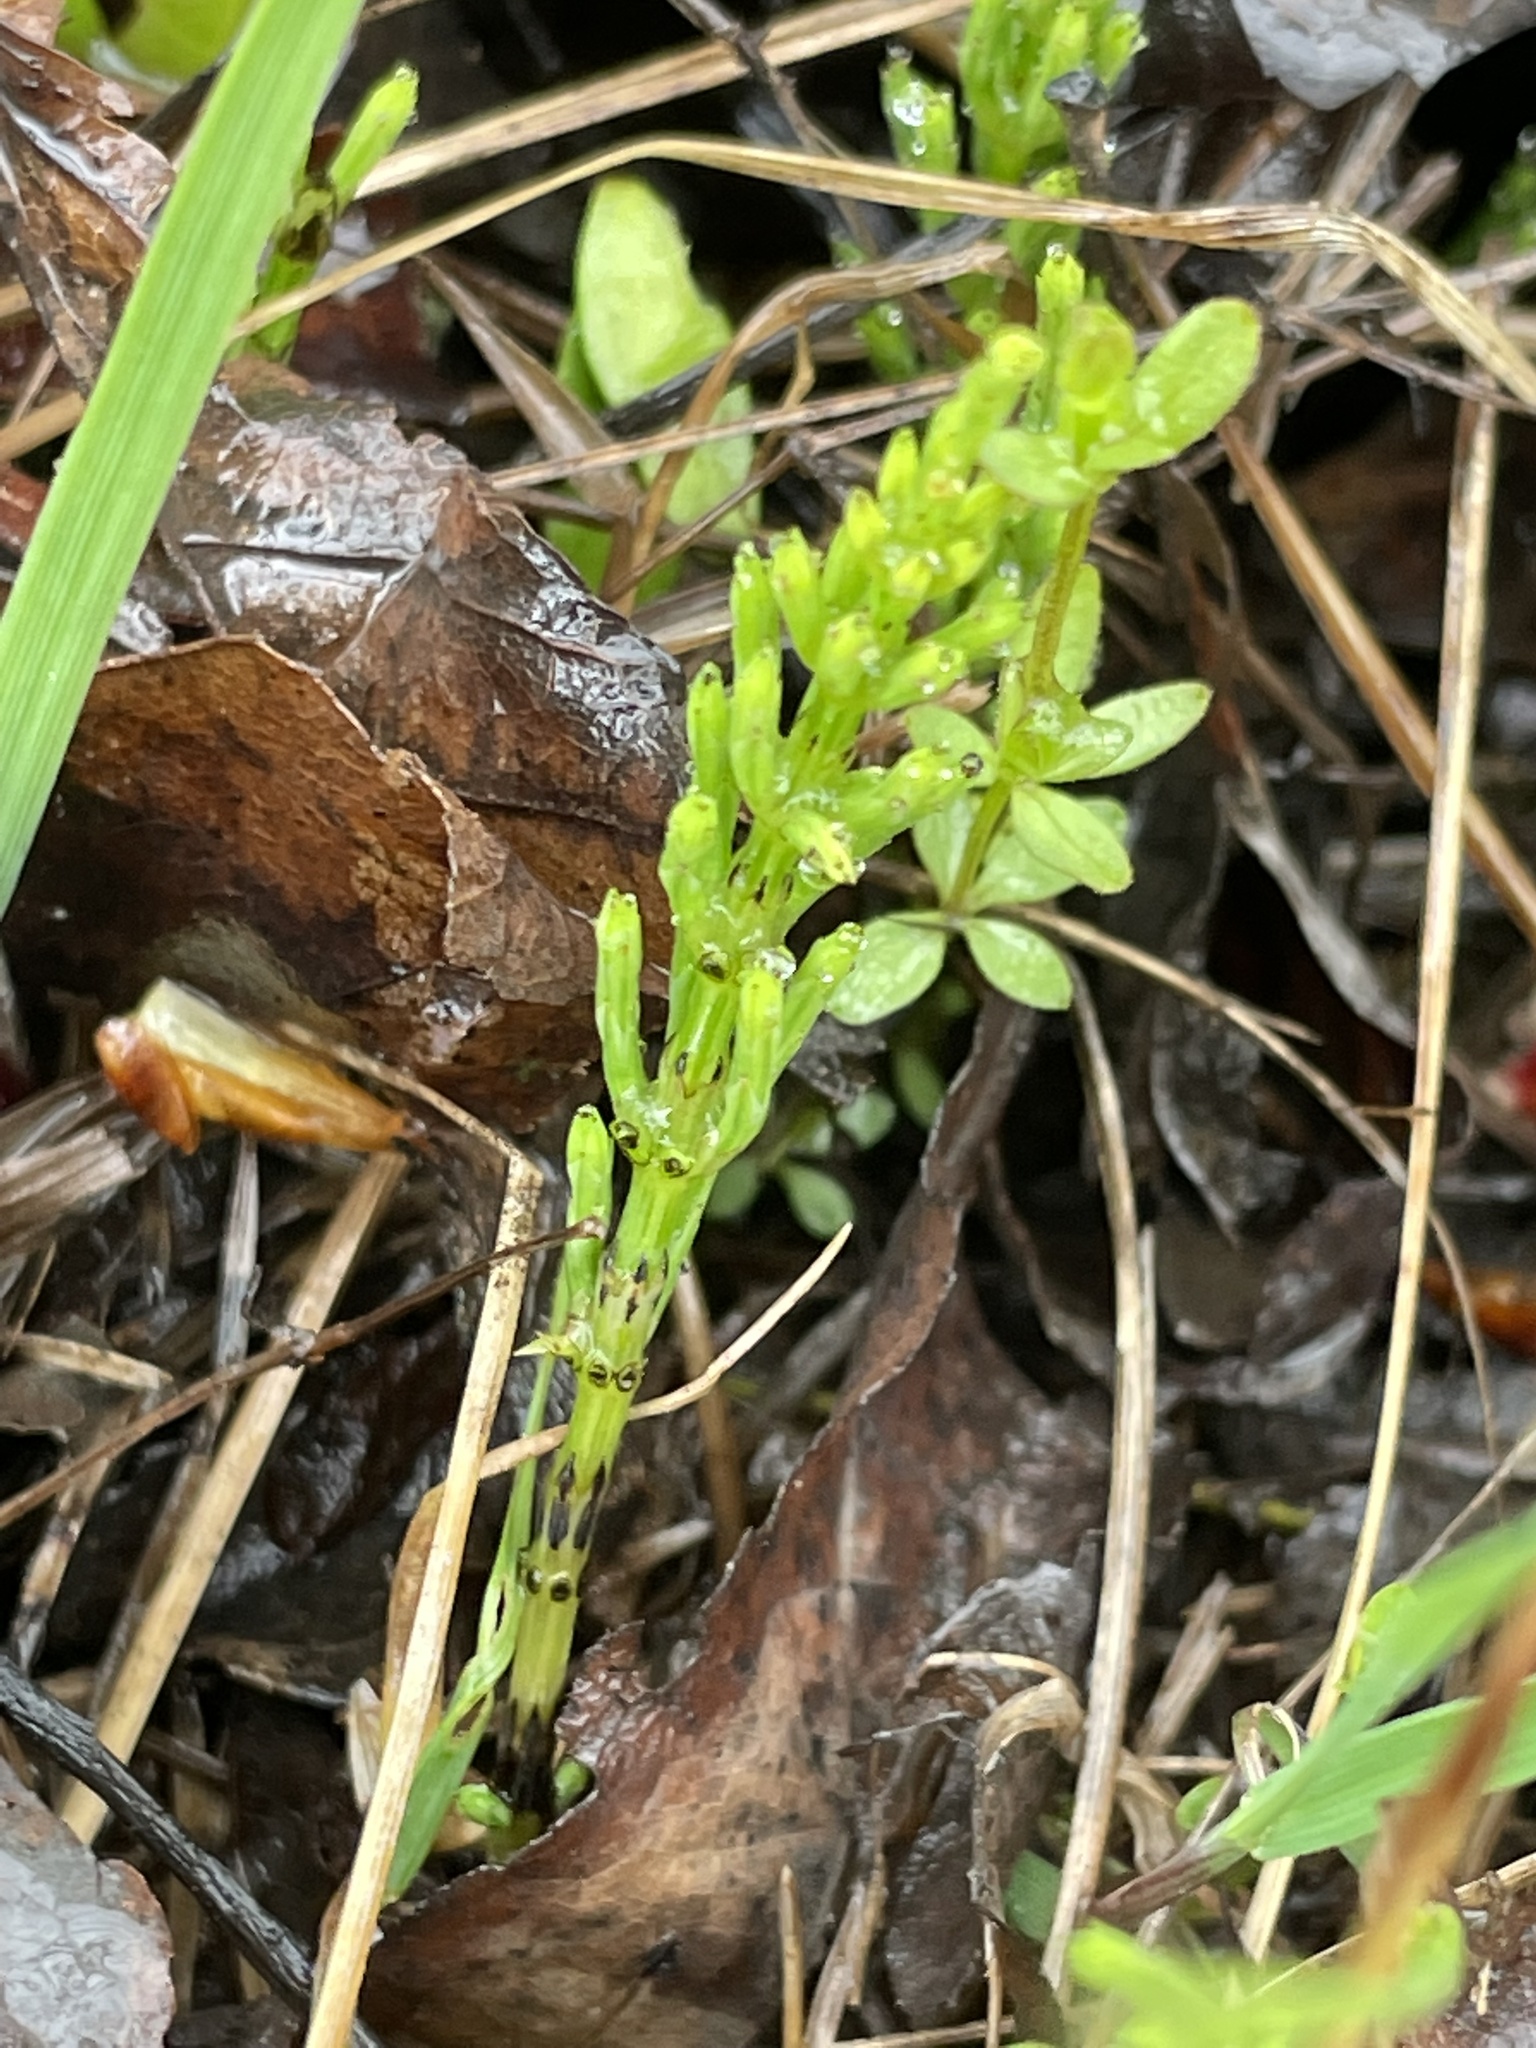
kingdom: Plantae
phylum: Tracheophyta
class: Polypodiopsida
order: Equisetales
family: Equisetaceae
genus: Equisetum
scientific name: Equisetum arvense
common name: Field horsetail
